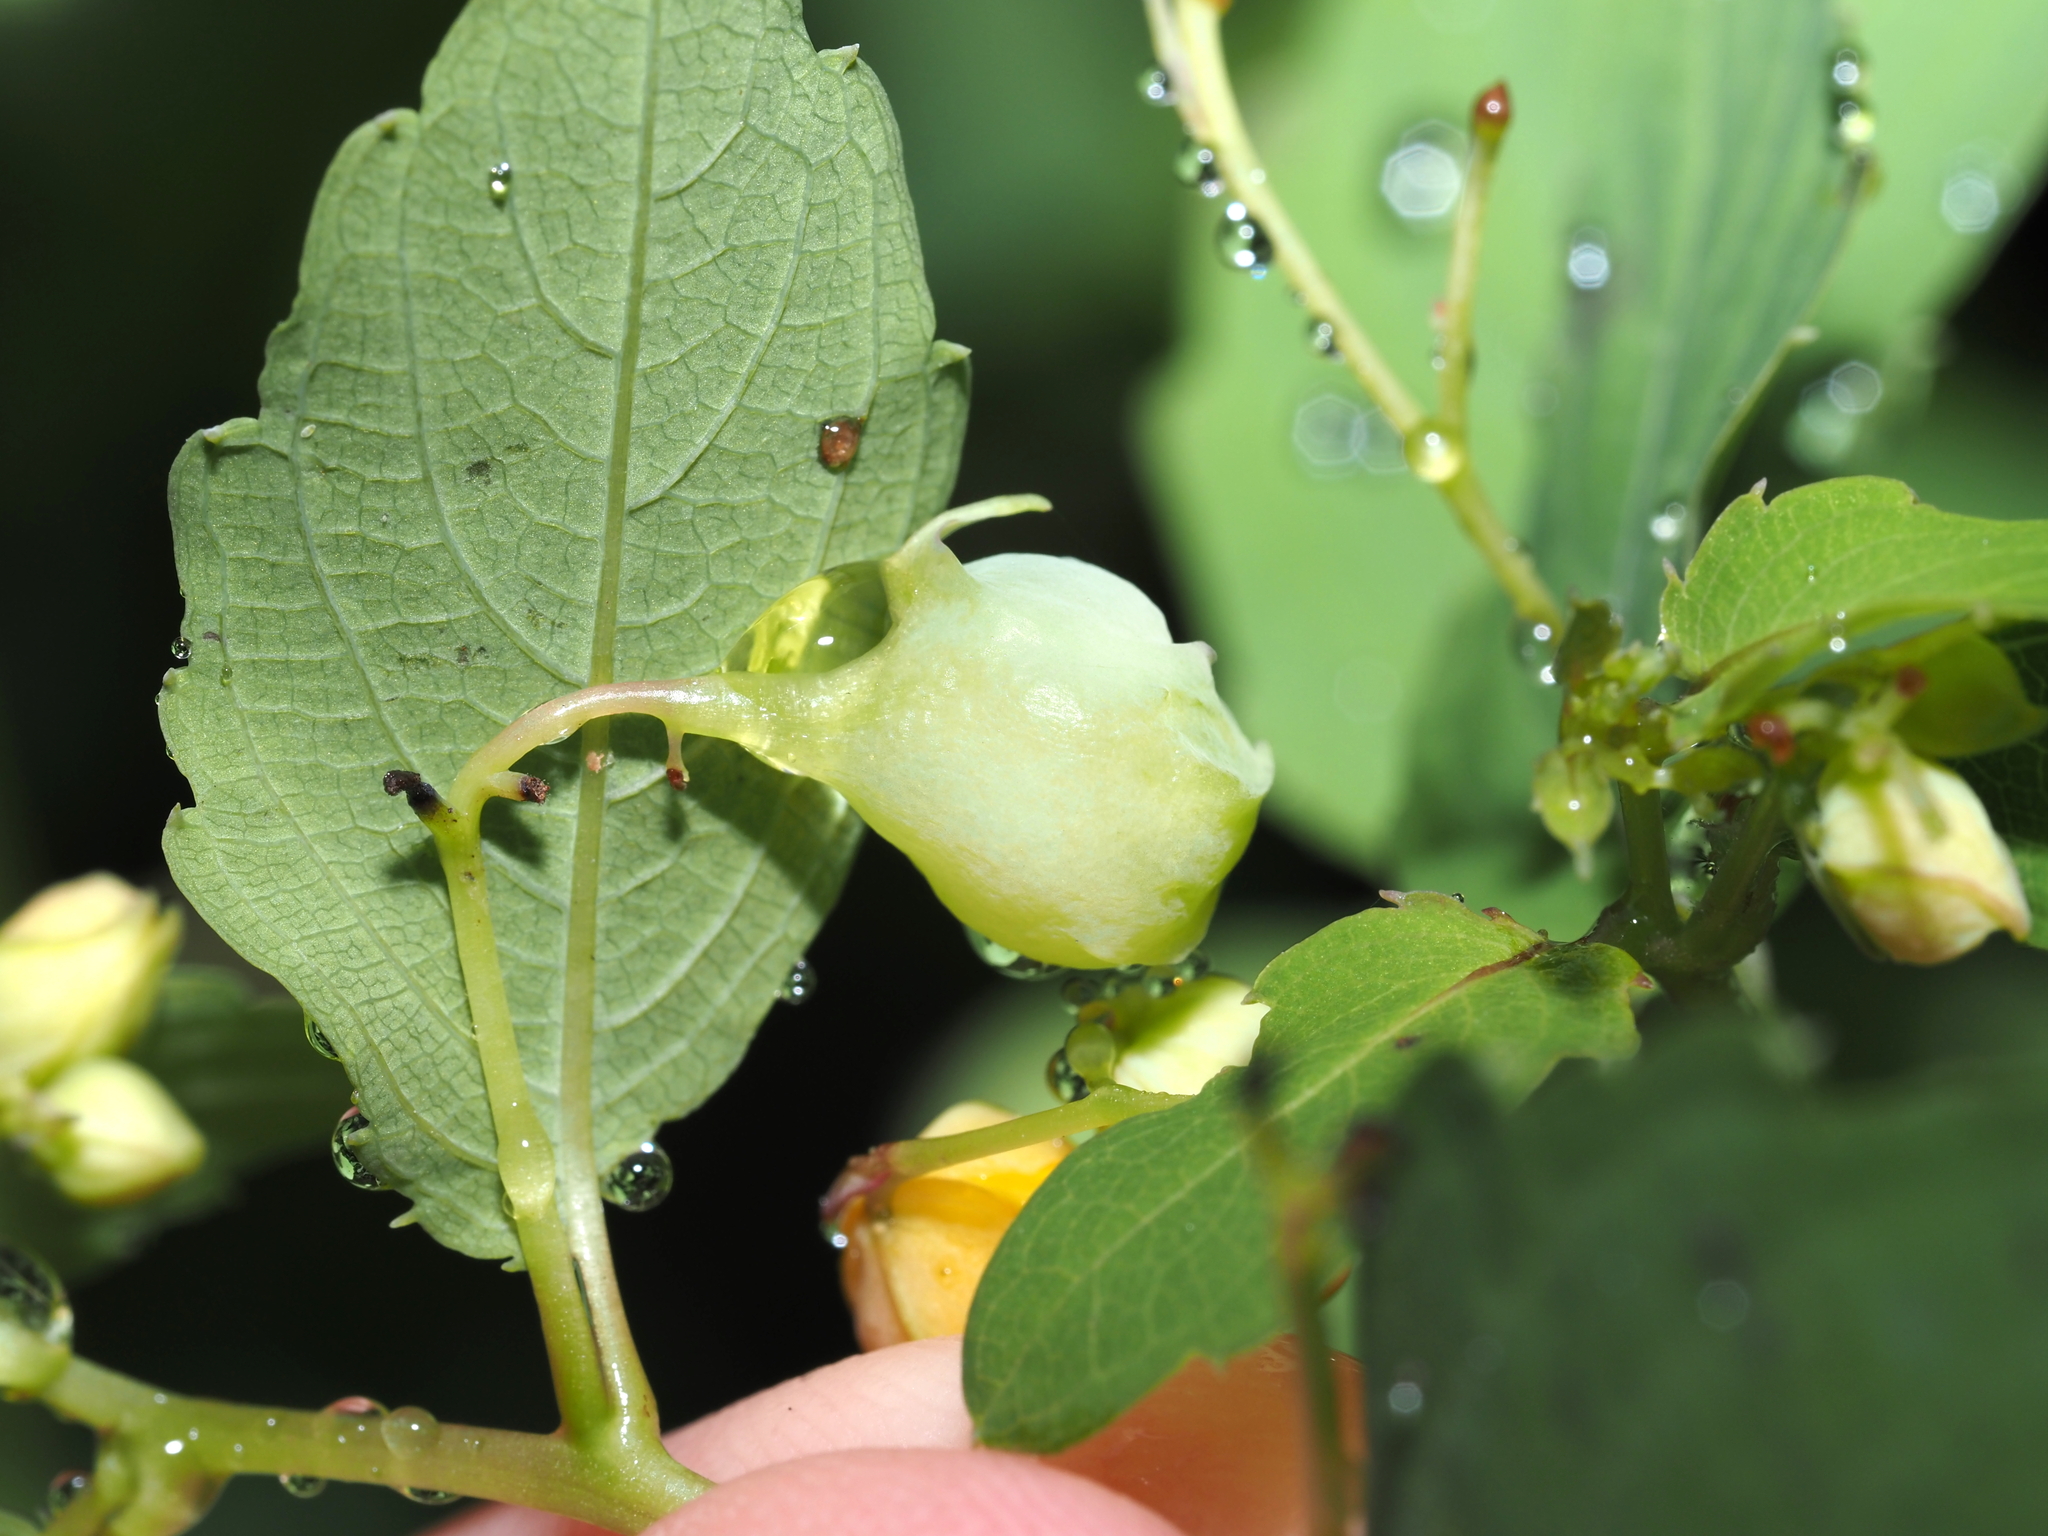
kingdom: Animalia
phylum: Arthropoda
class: Insecta
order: Diptera
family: Cecidomyiidae
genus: Schizomyia
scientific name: Schizomyia impatientis
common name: Jewelweed gall midge
